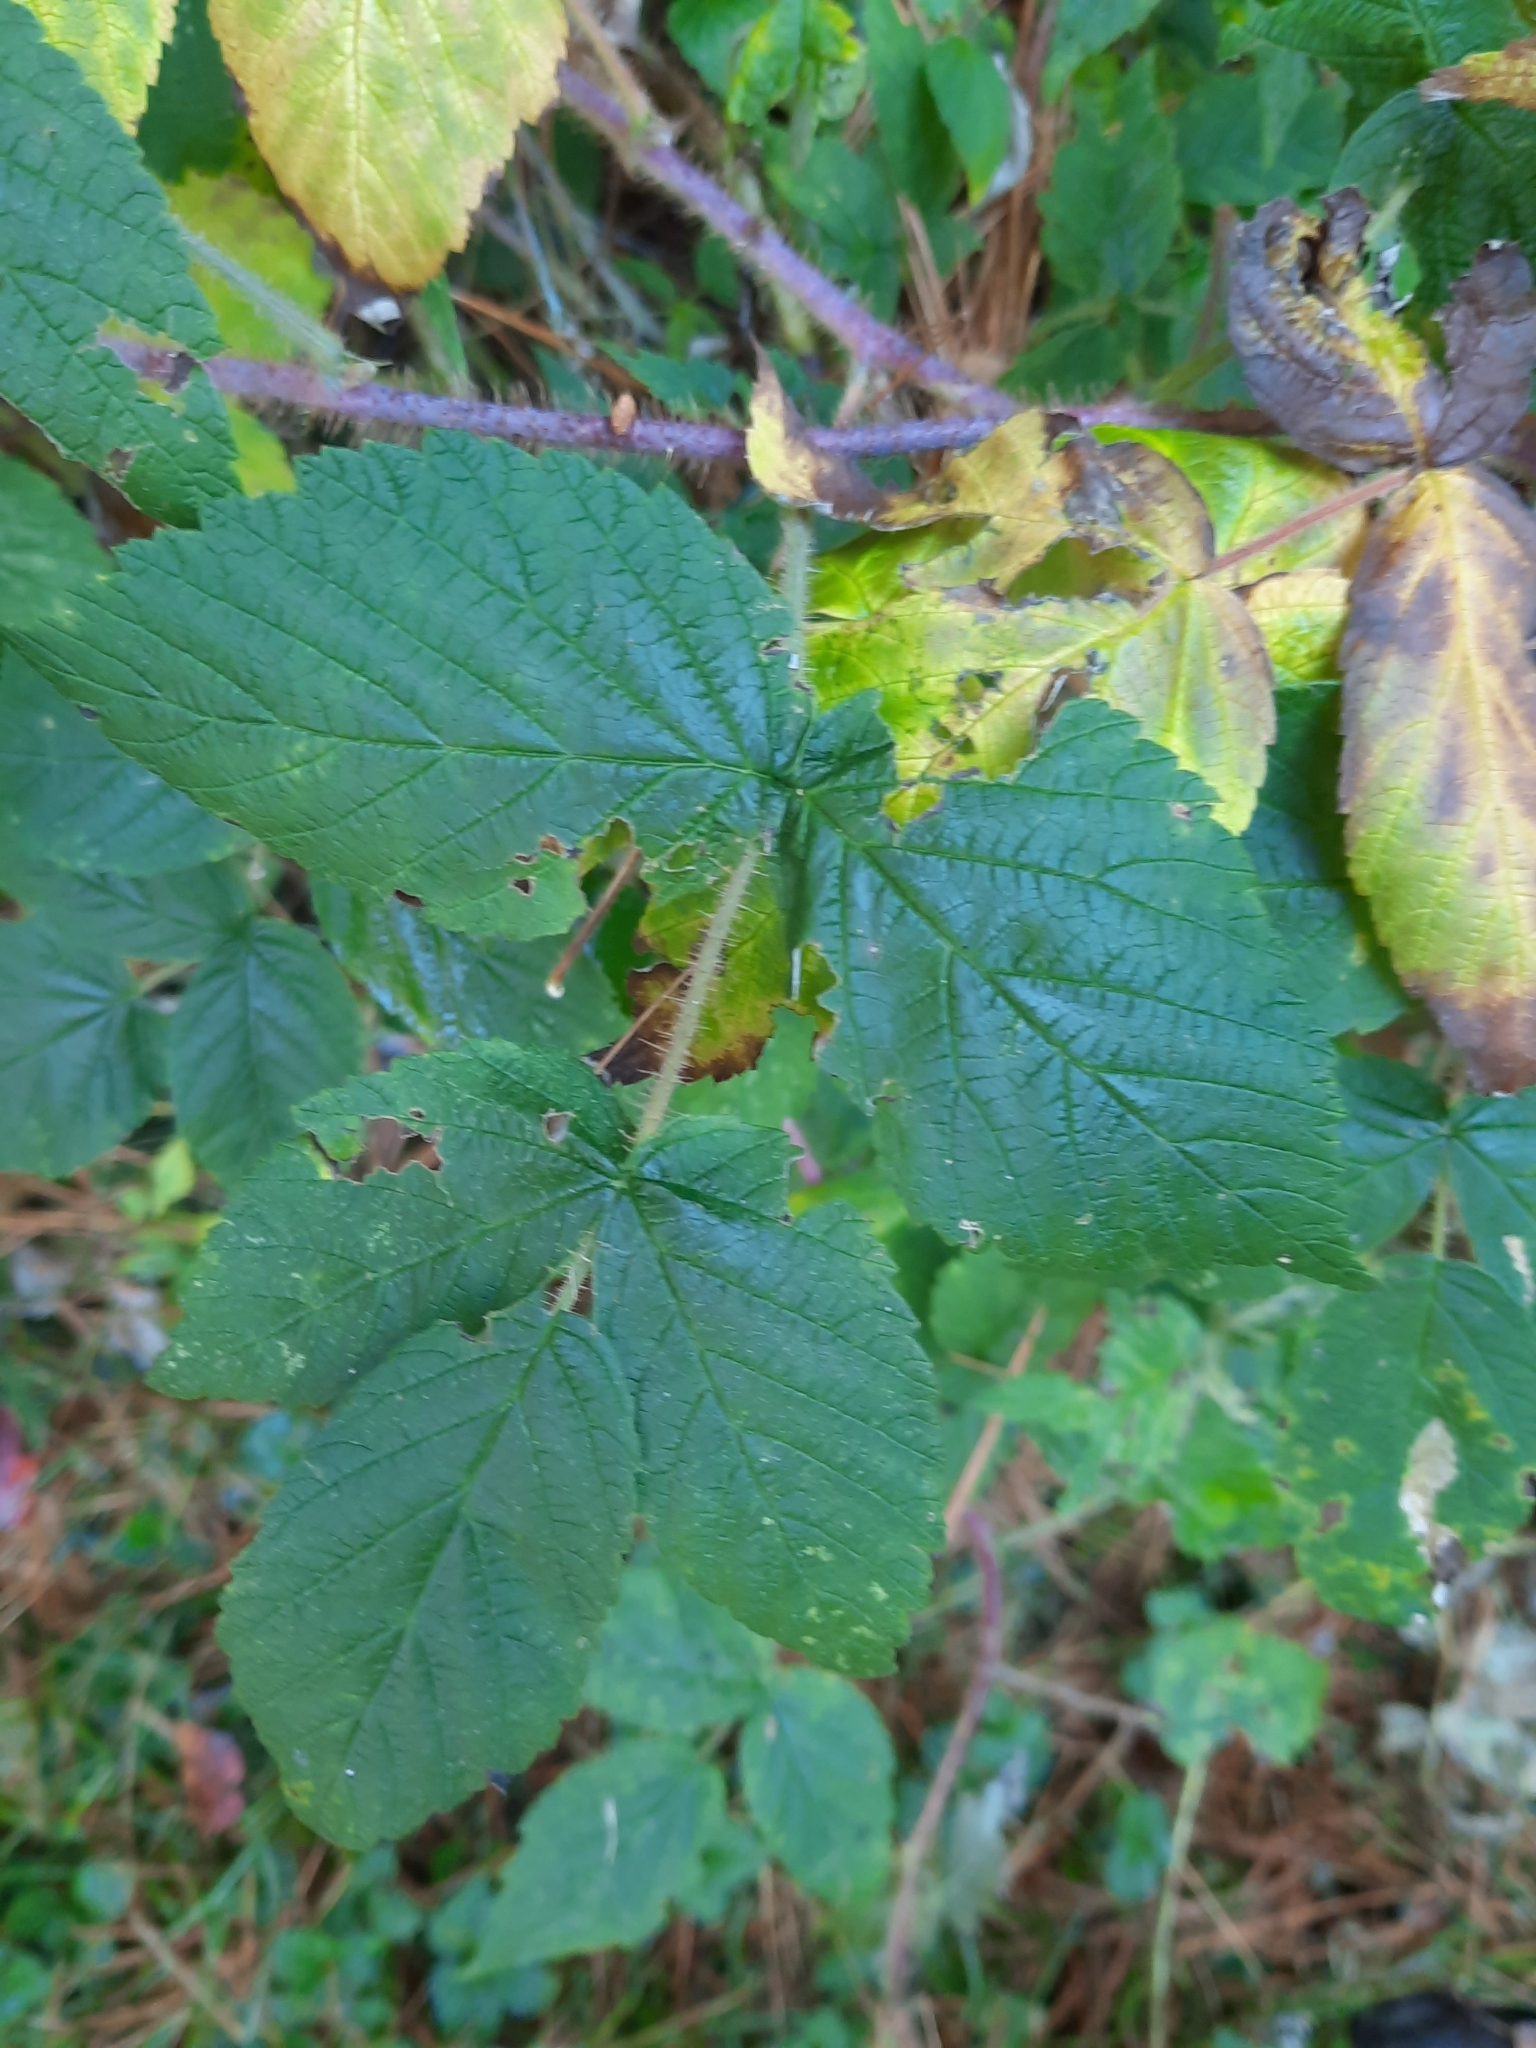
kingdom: Plantae
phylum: Tracheophyta
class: Magnoliopsida
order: Rosales
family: Rosaceae
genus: Rubus
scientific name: Rubus idaeus
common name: Raspberry
